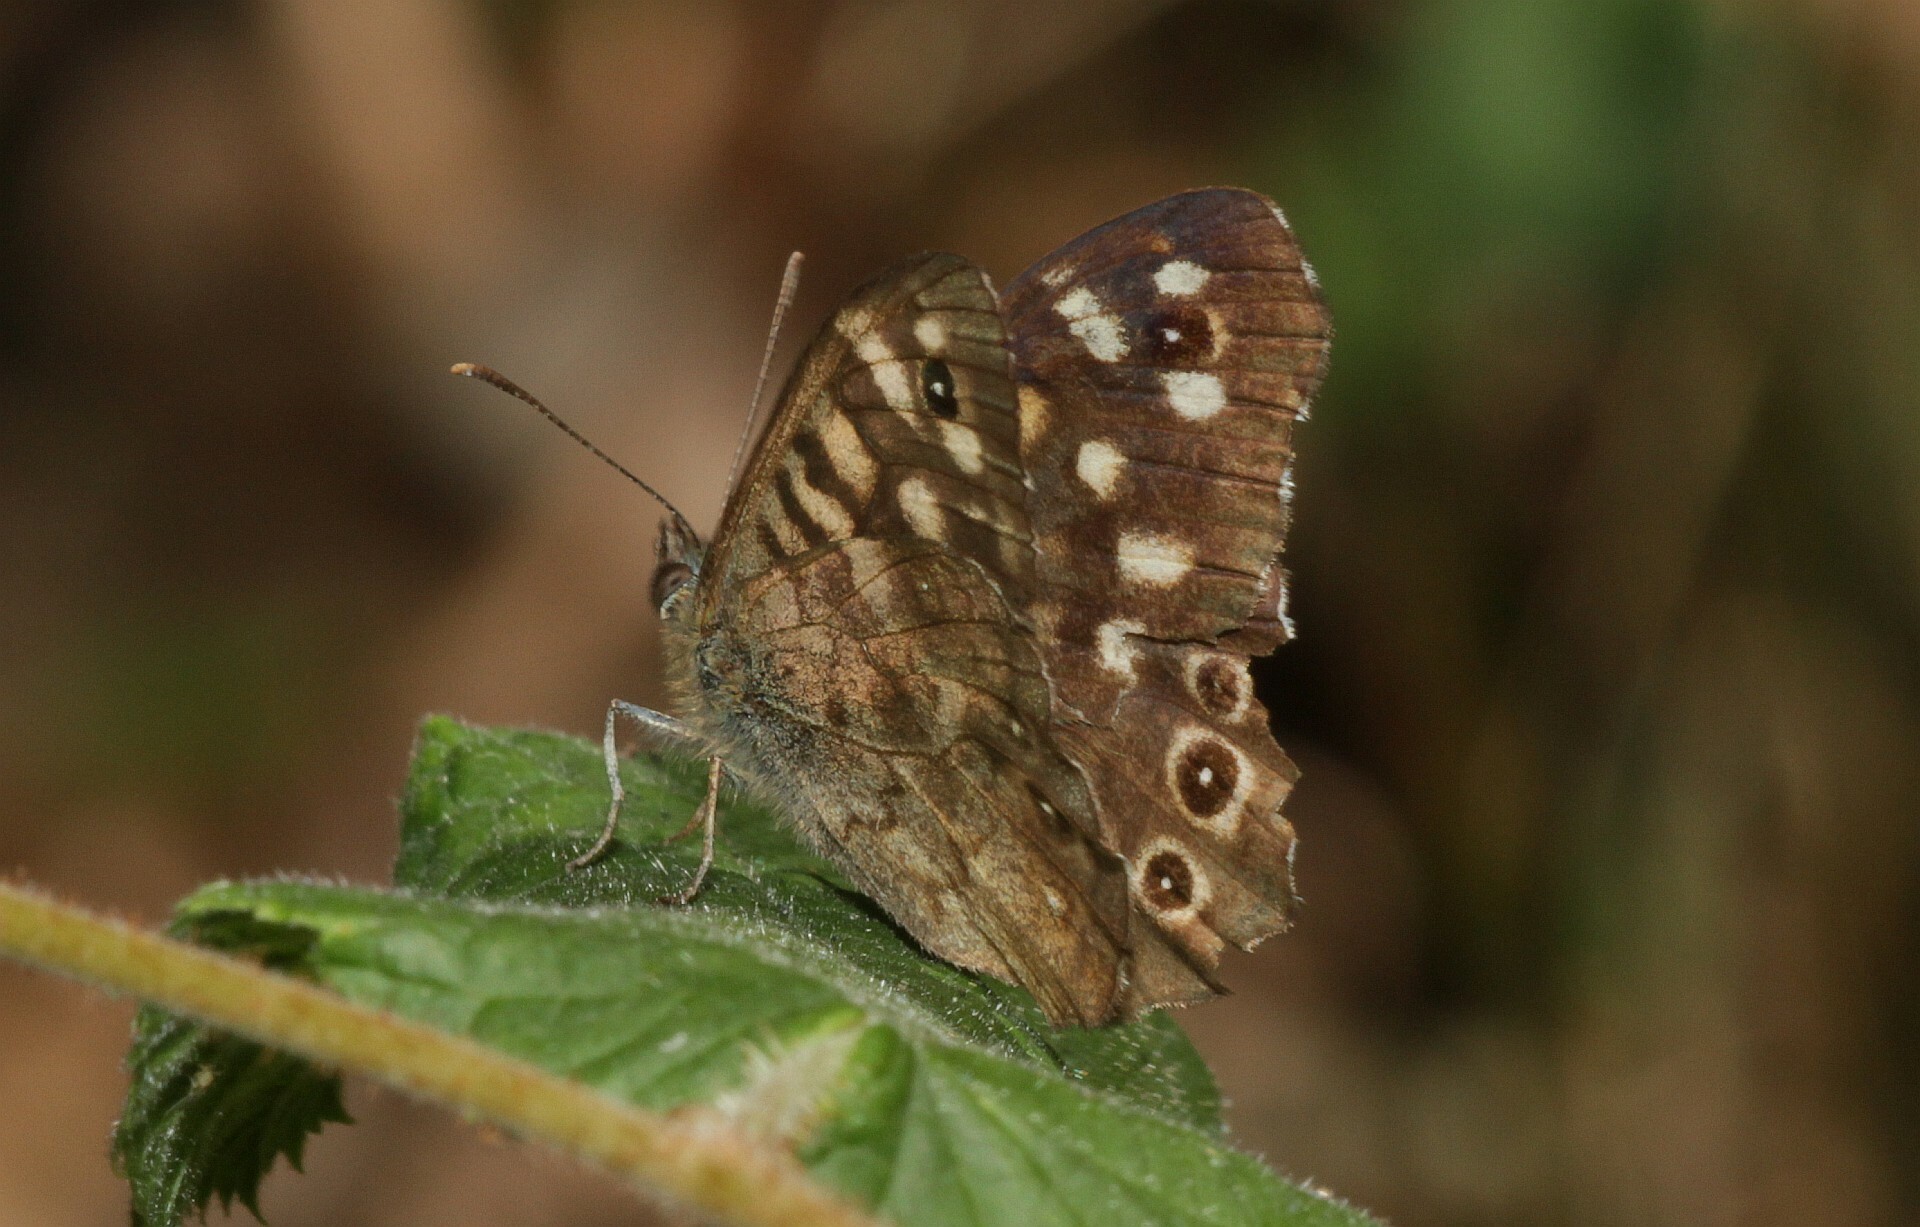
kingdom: Animalia
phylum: Arthropoda
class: Insecta
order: Lepidoptera
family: Nymphalidae
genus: Pararge
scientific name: Pararge aegeria
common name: Speckled wood
